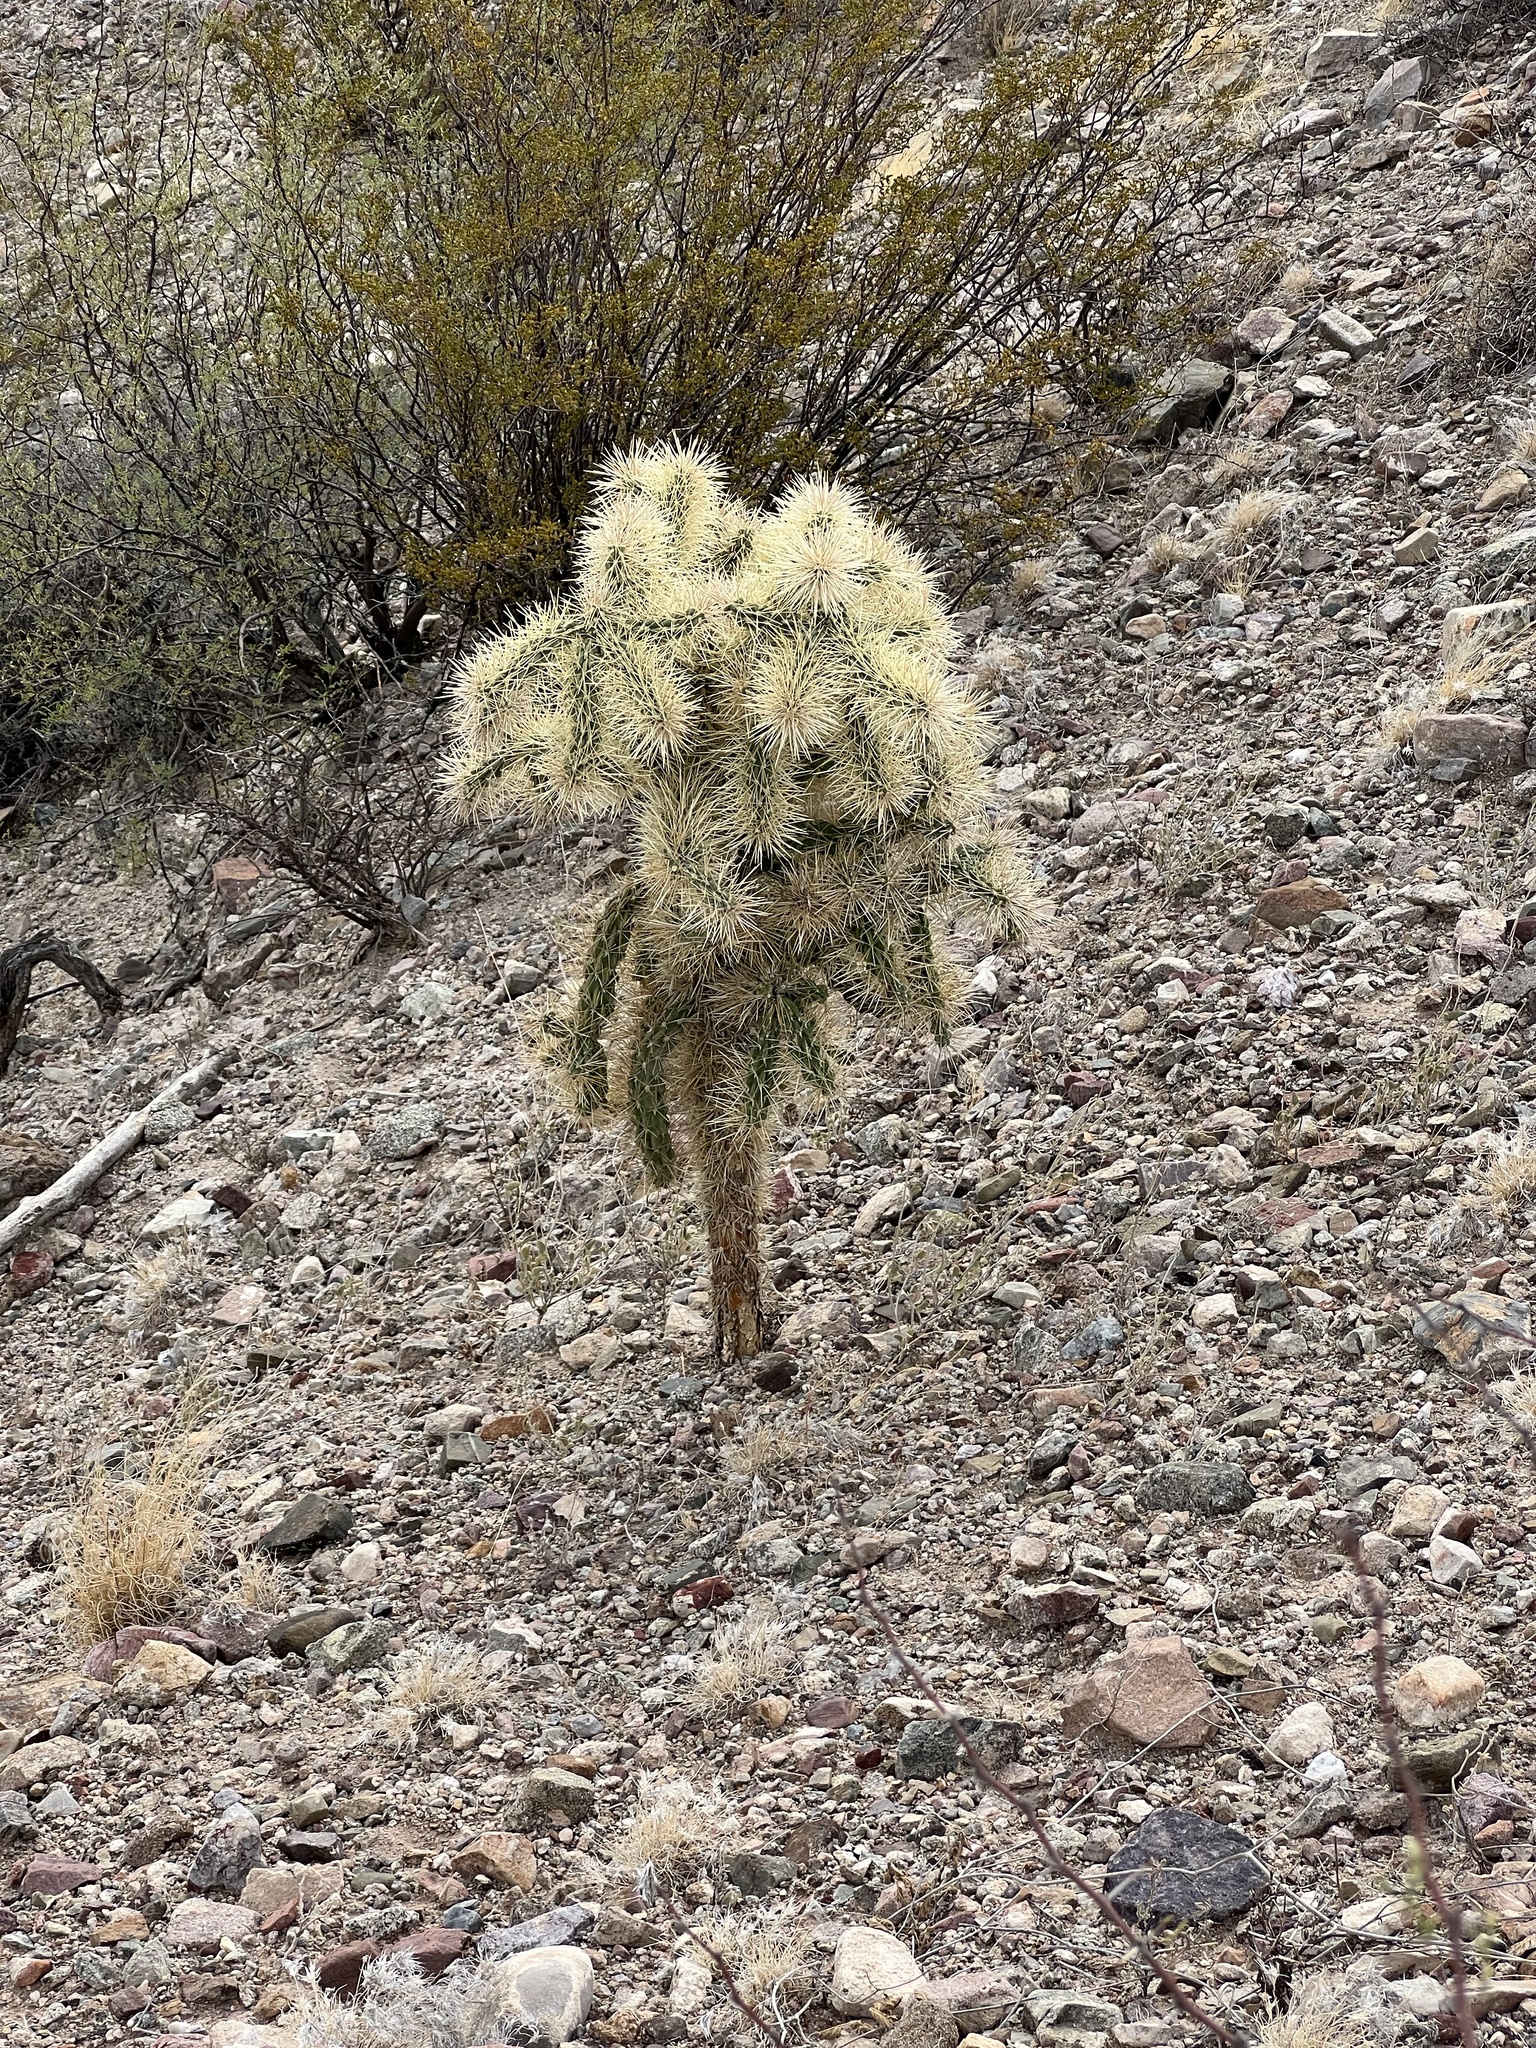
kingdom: Plantae
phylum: Tracheophyta
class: Magnoliopsida
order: Caryophyllales
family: Cactaceae
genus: Cylindropuntia
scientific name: Cylindropuntia fulgida
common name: Jumping cholla
